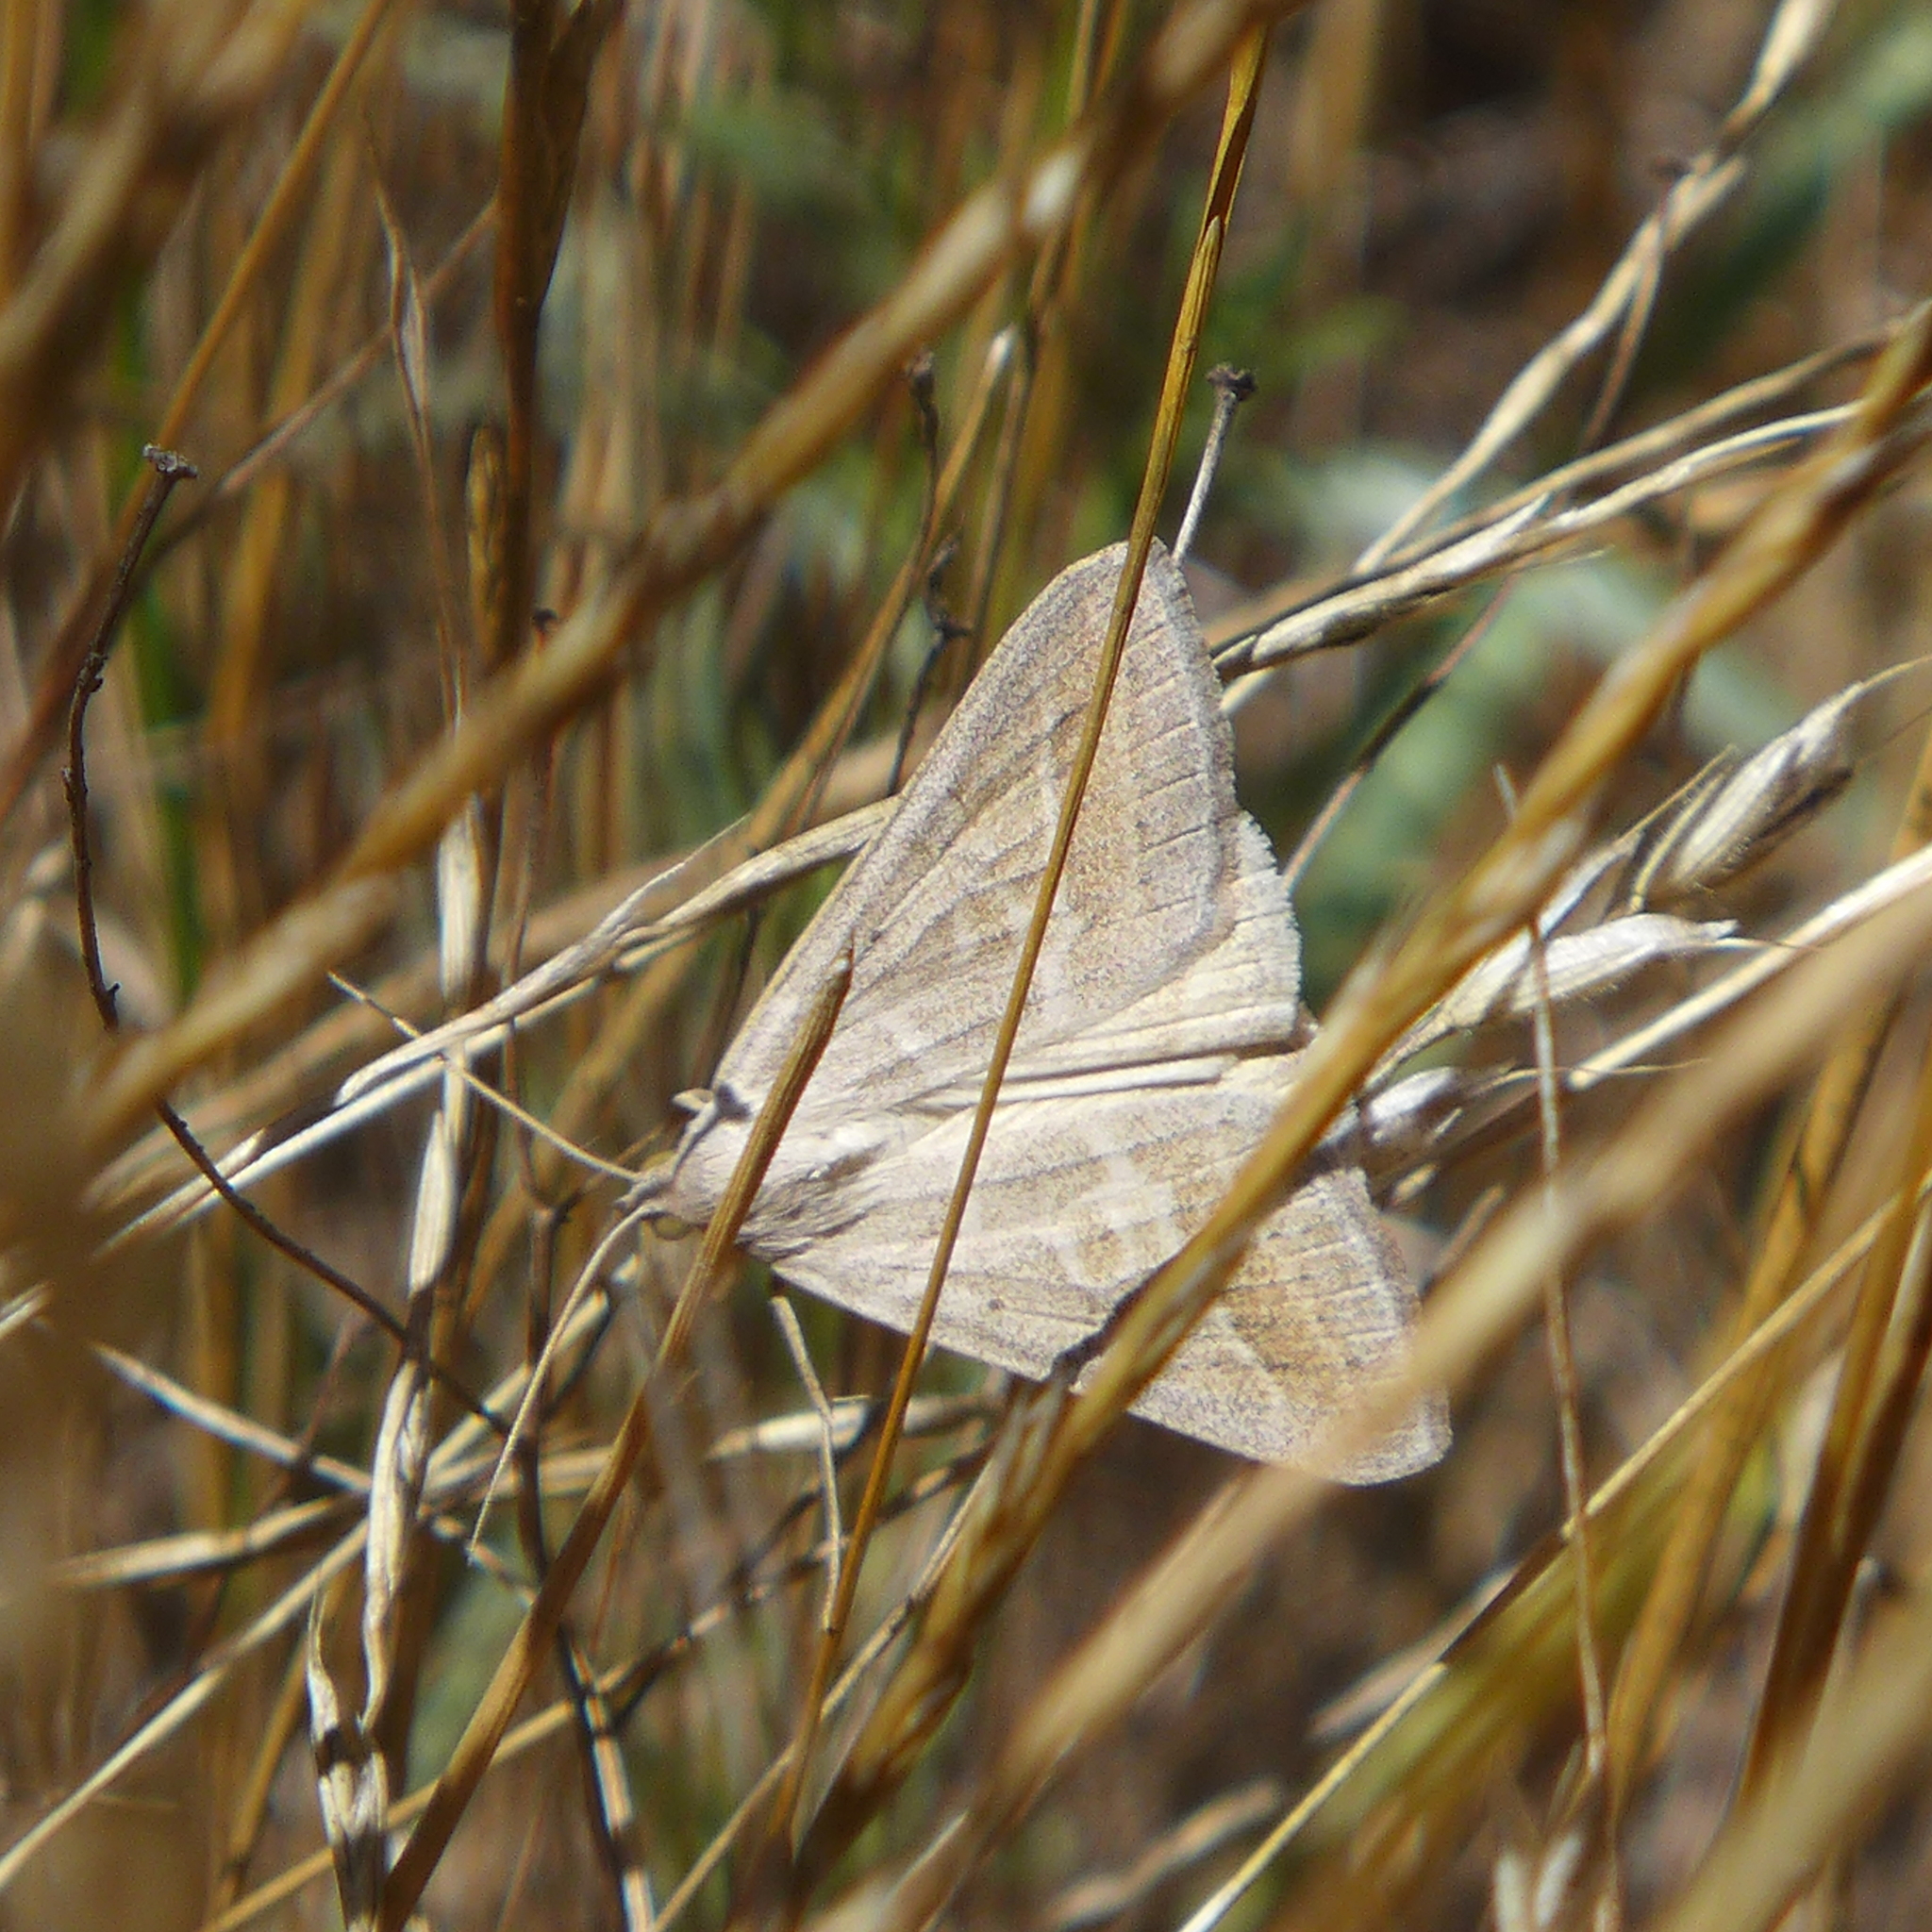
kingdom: Animalia
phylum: Arthropoda
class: Insecta
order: Lepidoptera
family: Erebidae
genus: Caenurgia
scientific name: Caenurgia togataria
